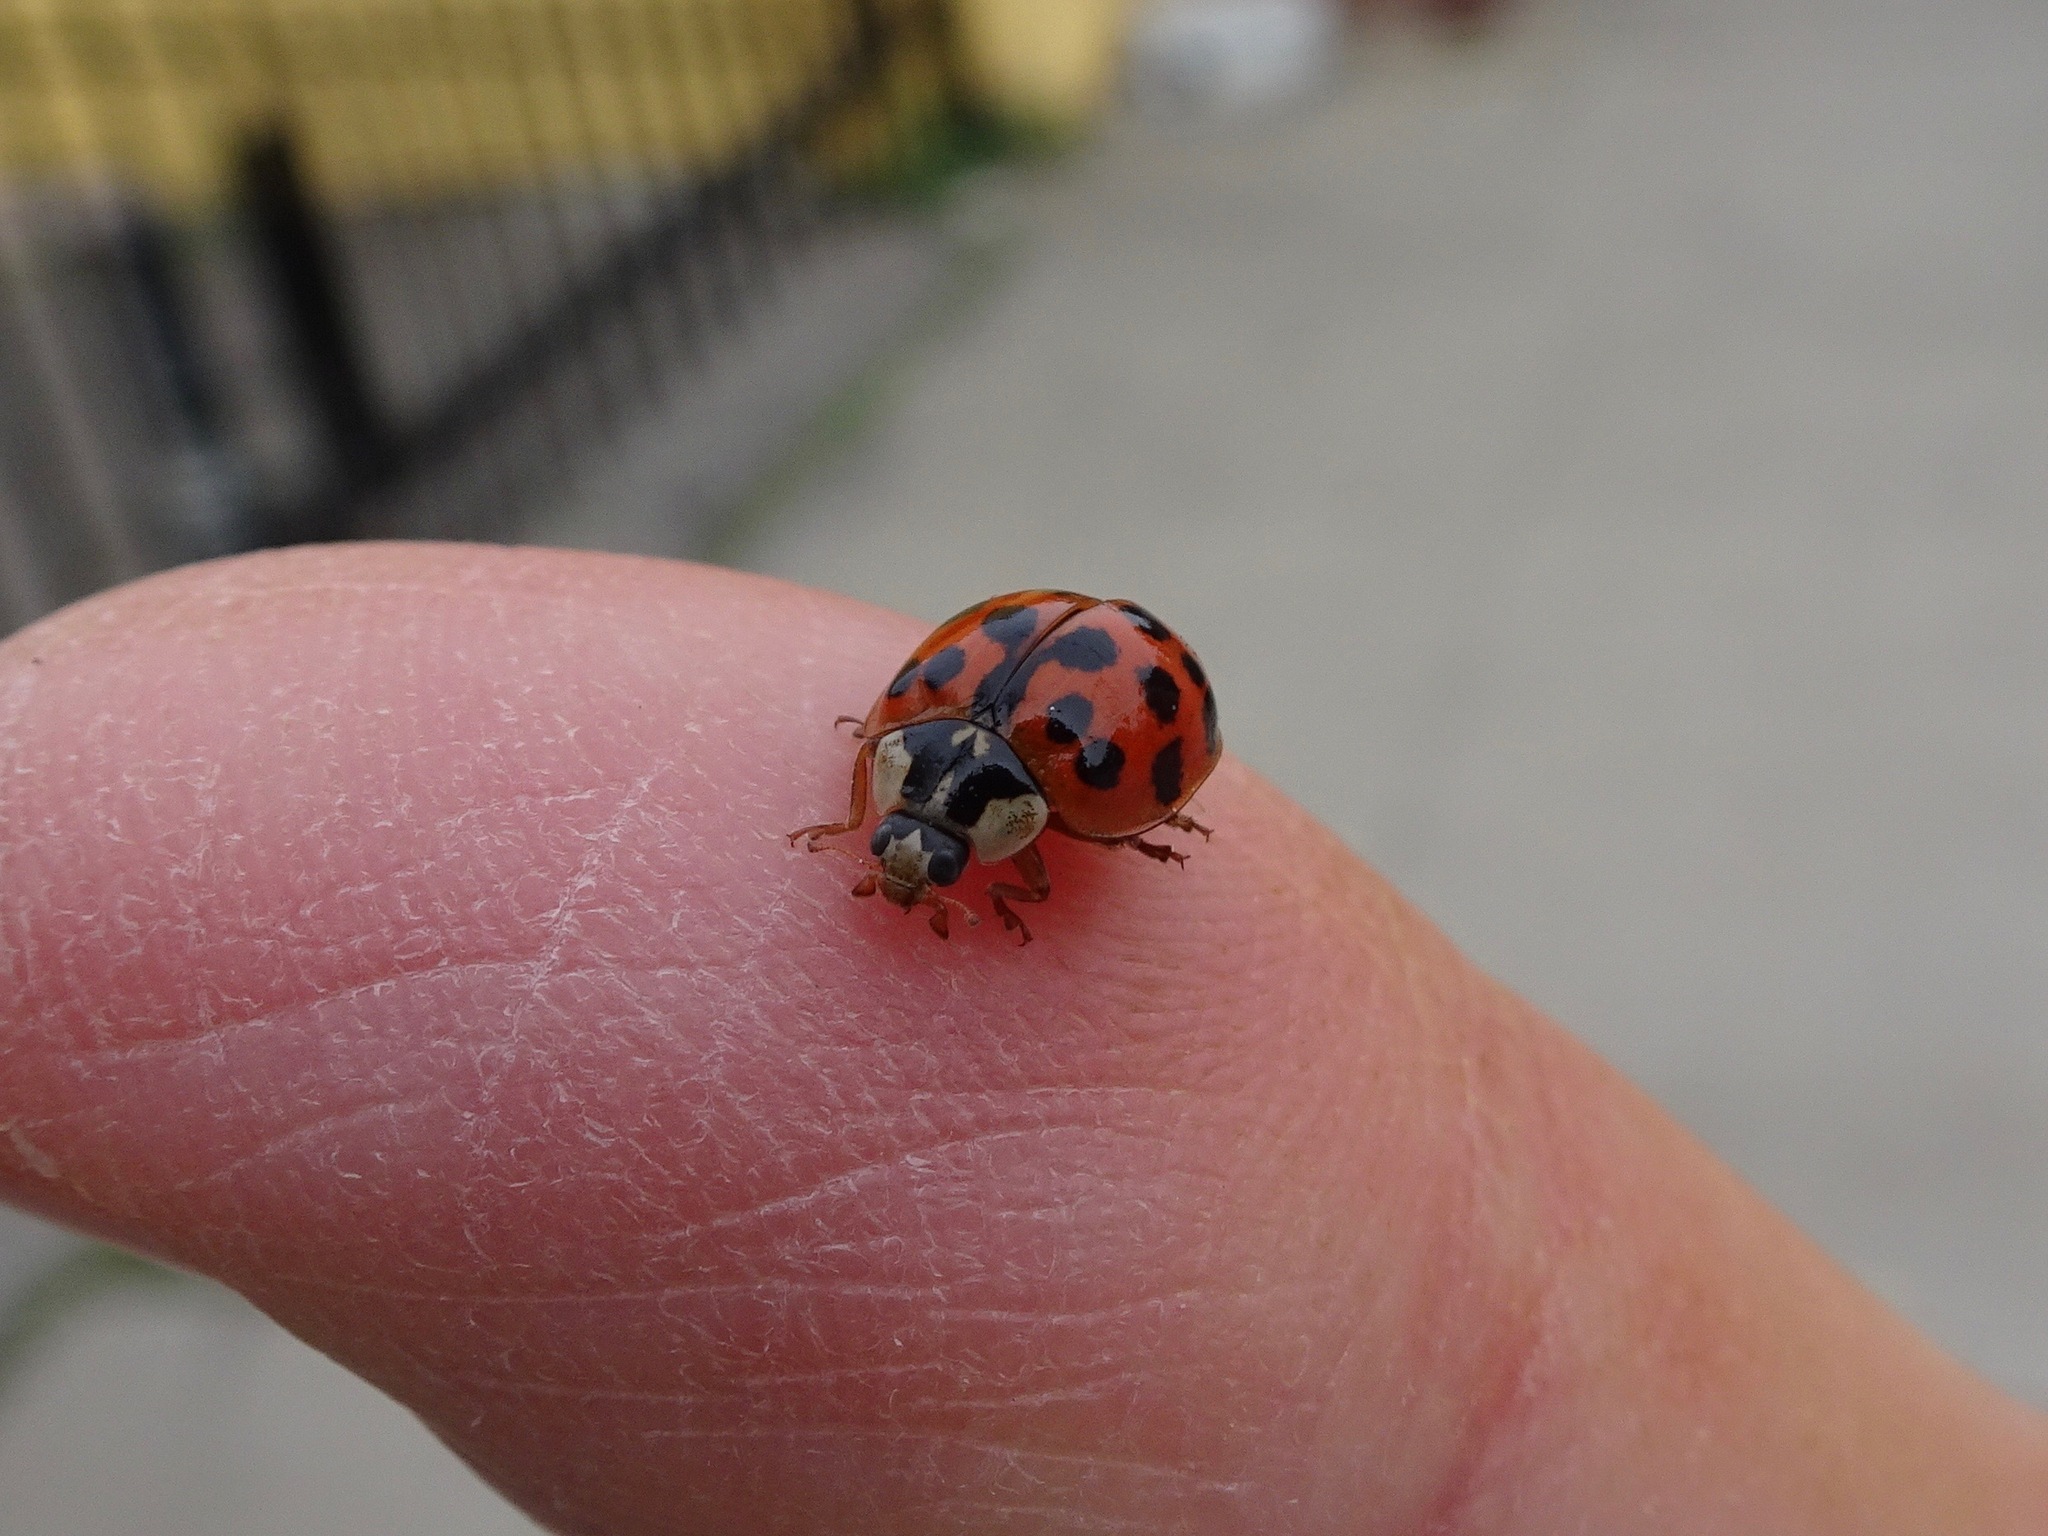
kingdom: Animalia
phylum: Arthropoda
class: Insecta
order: Coleoptera
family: Coccinellidae
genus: Harmonia
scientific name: Harmonia axyridis
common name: Harlequin ladybird
